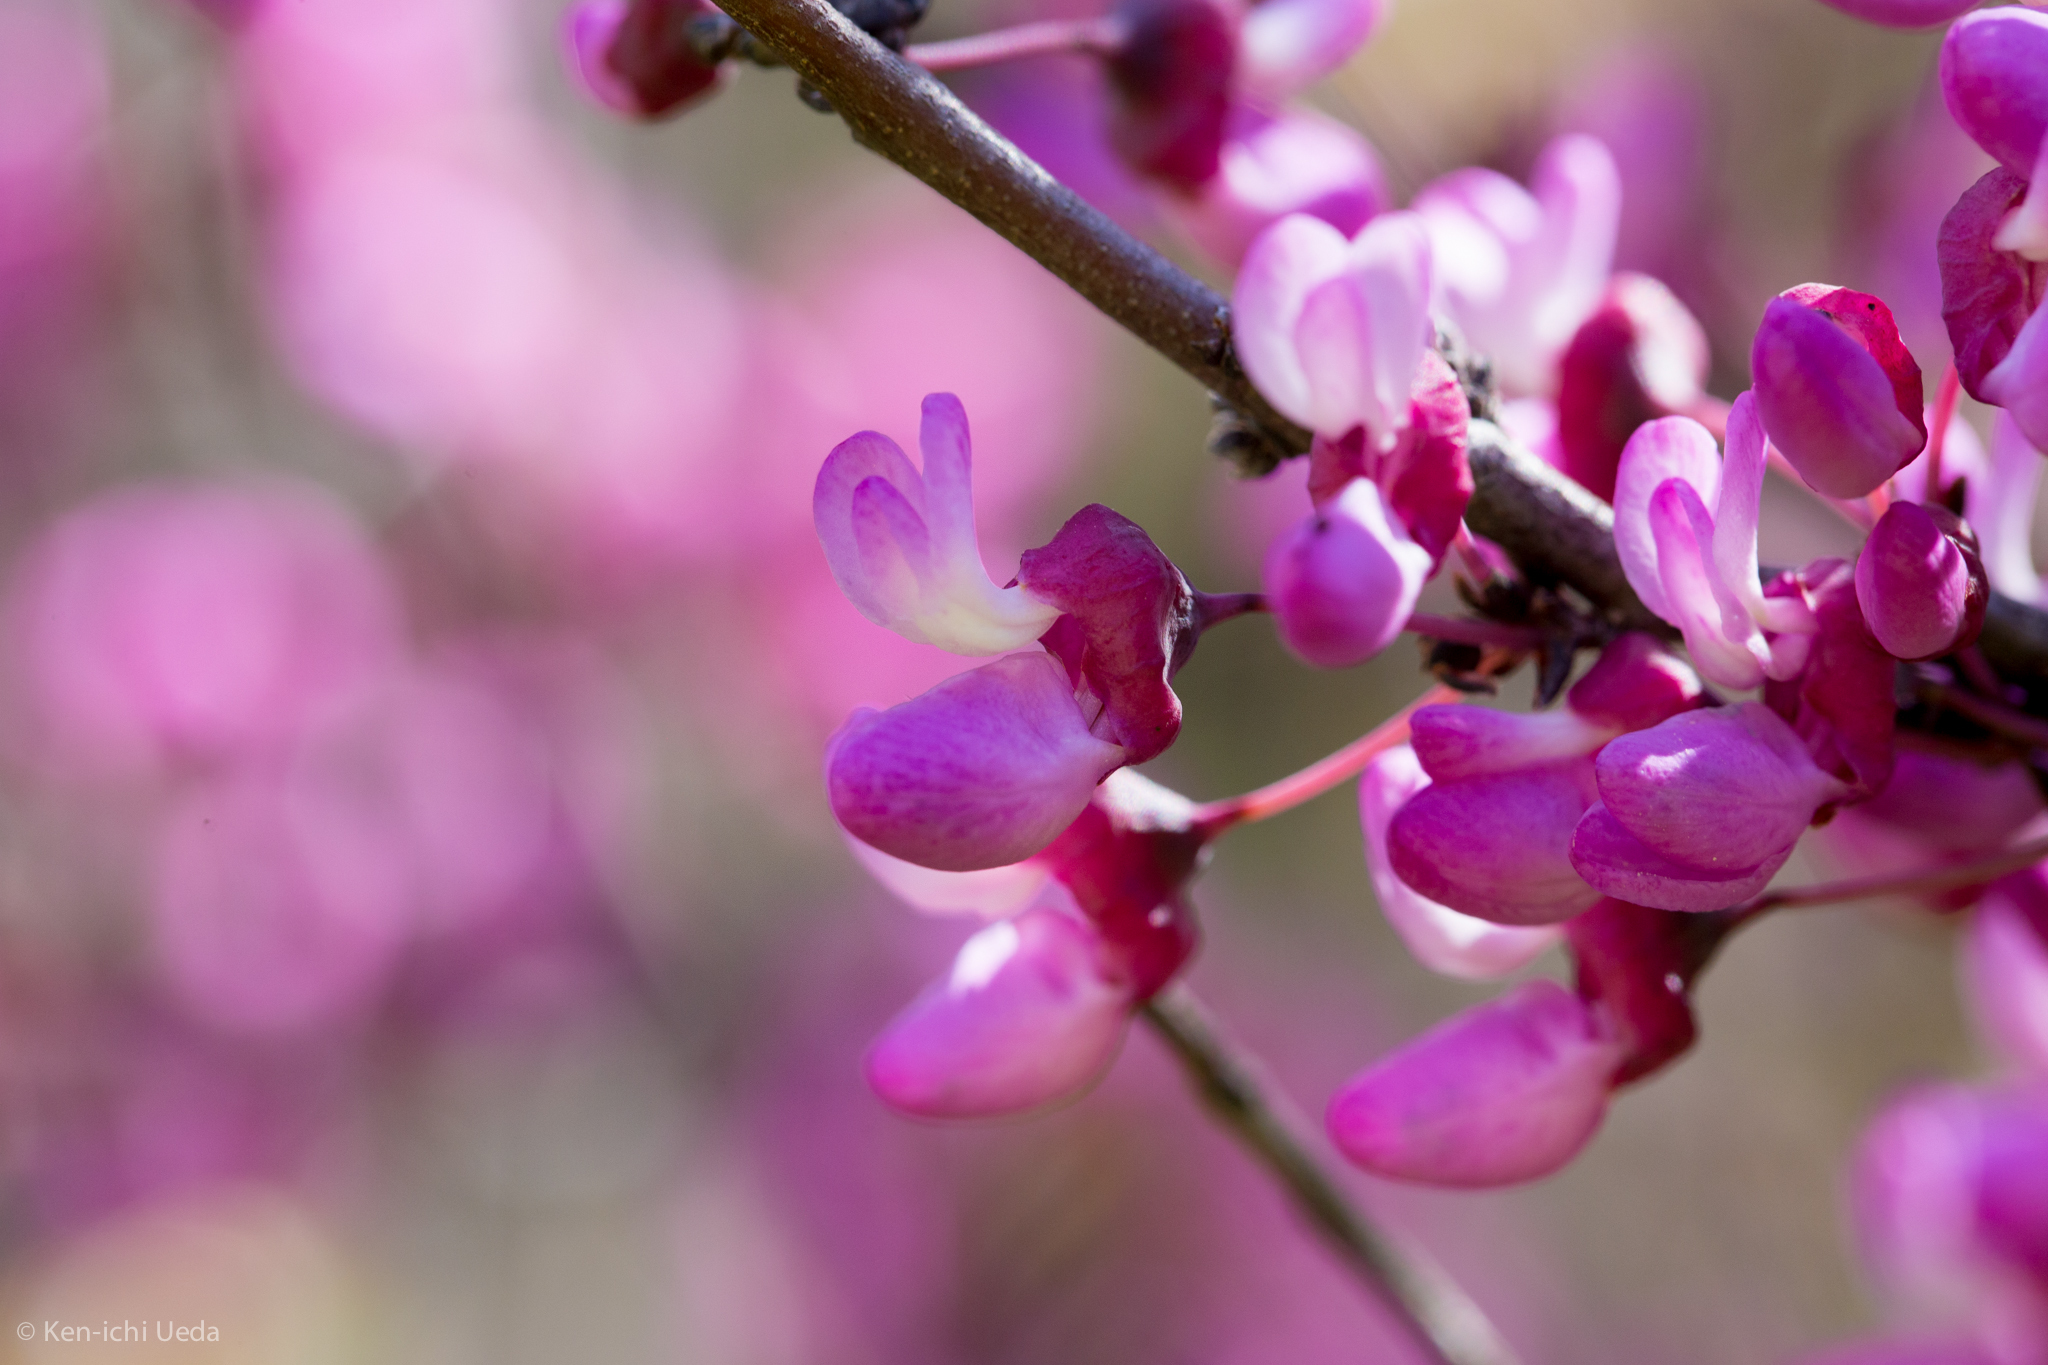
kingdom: Plantae
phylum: Tracheophyta
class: Magnoliopsida
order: Fabales
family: Fabaceae
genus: Cercis
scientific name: Cercis occidentalis
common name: California redbud
